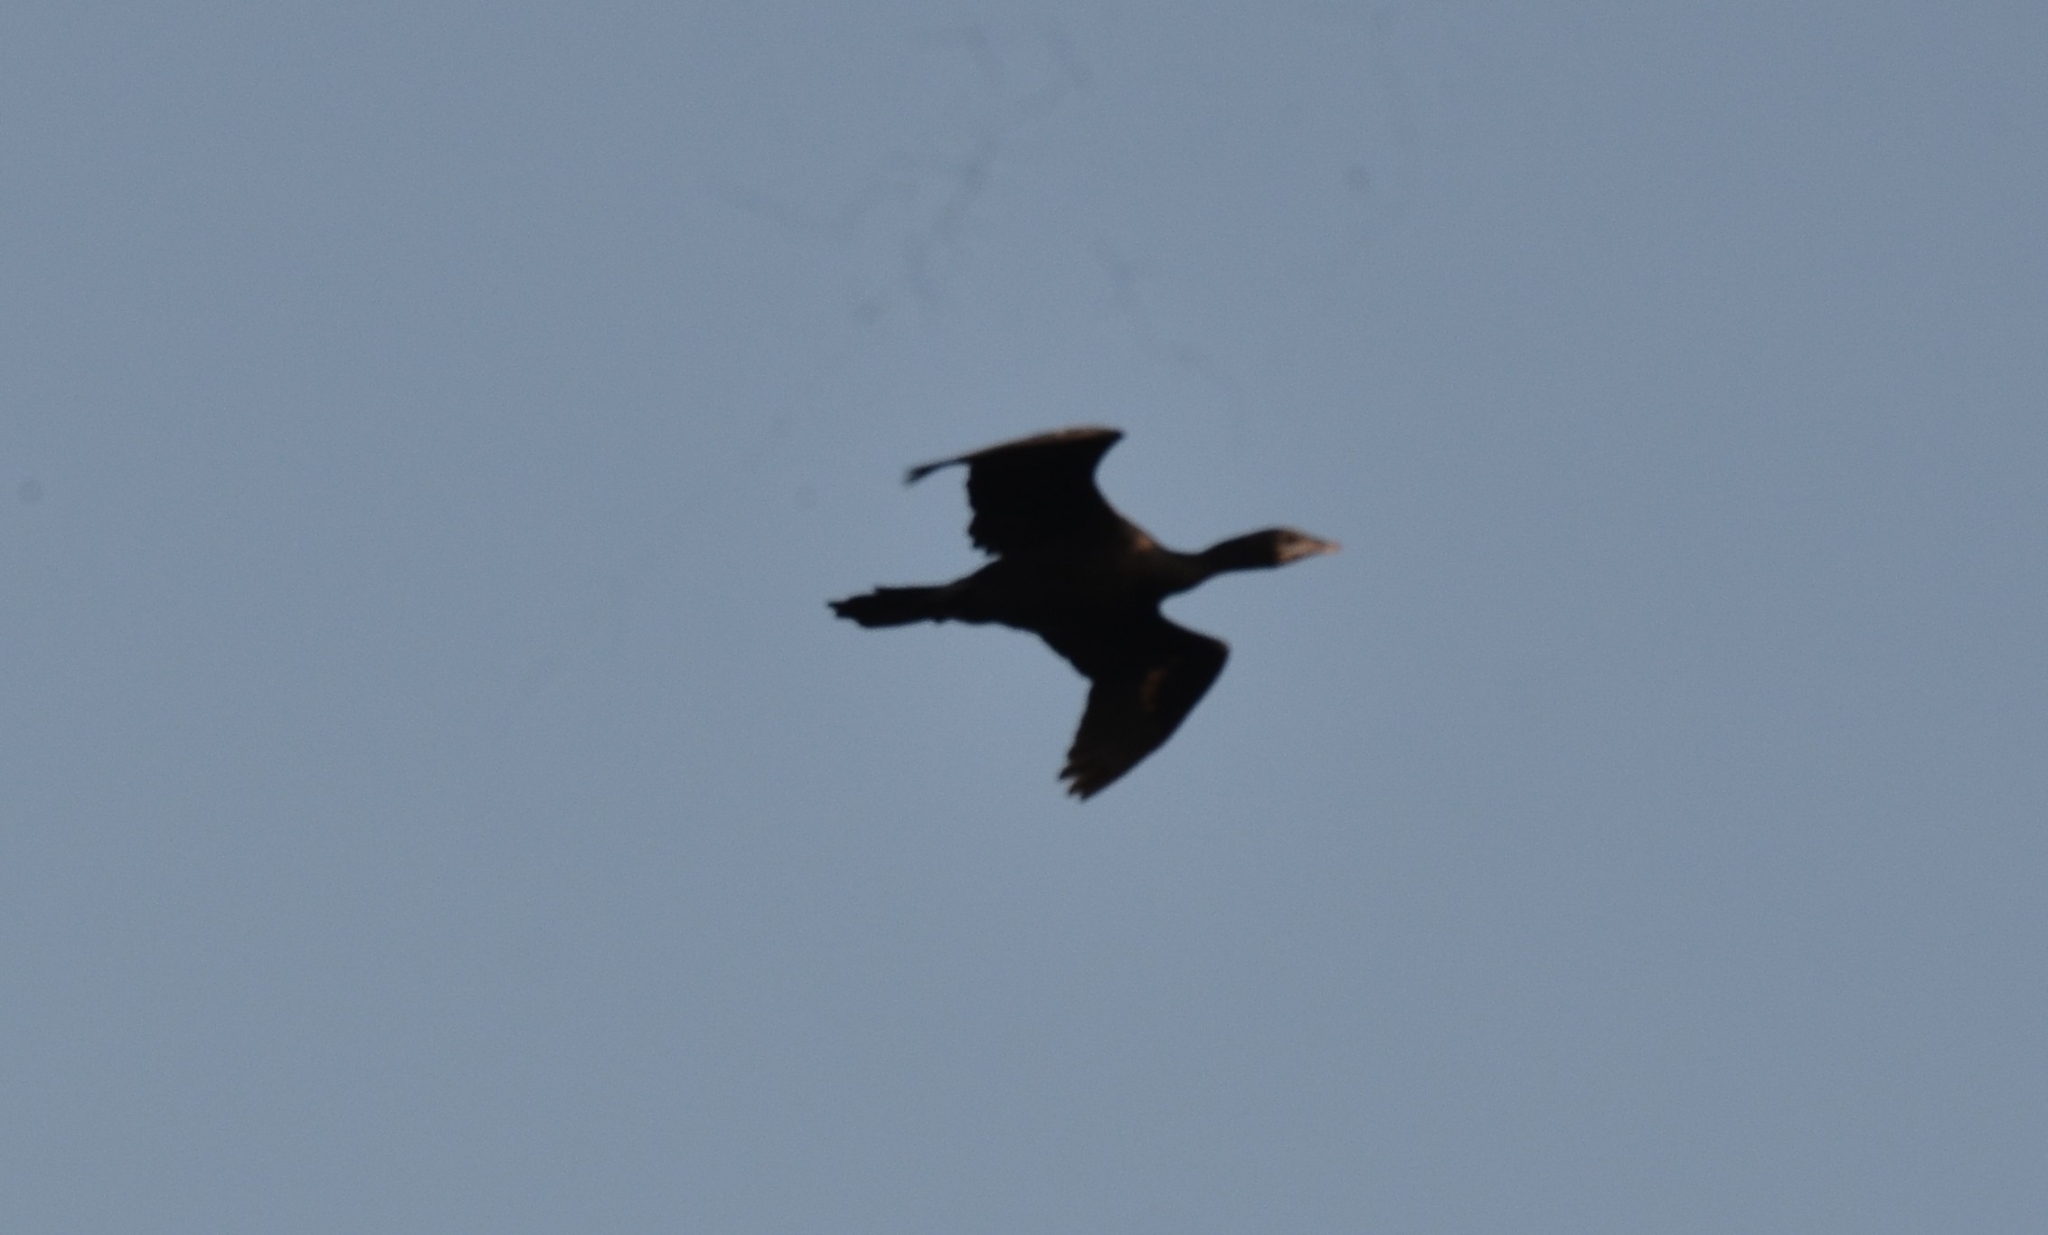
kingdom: Animalia
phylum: Chordata
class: Aves
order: Suliformes
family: Phalacrocoracidae
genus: Microcarbo
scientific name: Microcarbo niger
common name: Little cormorant
